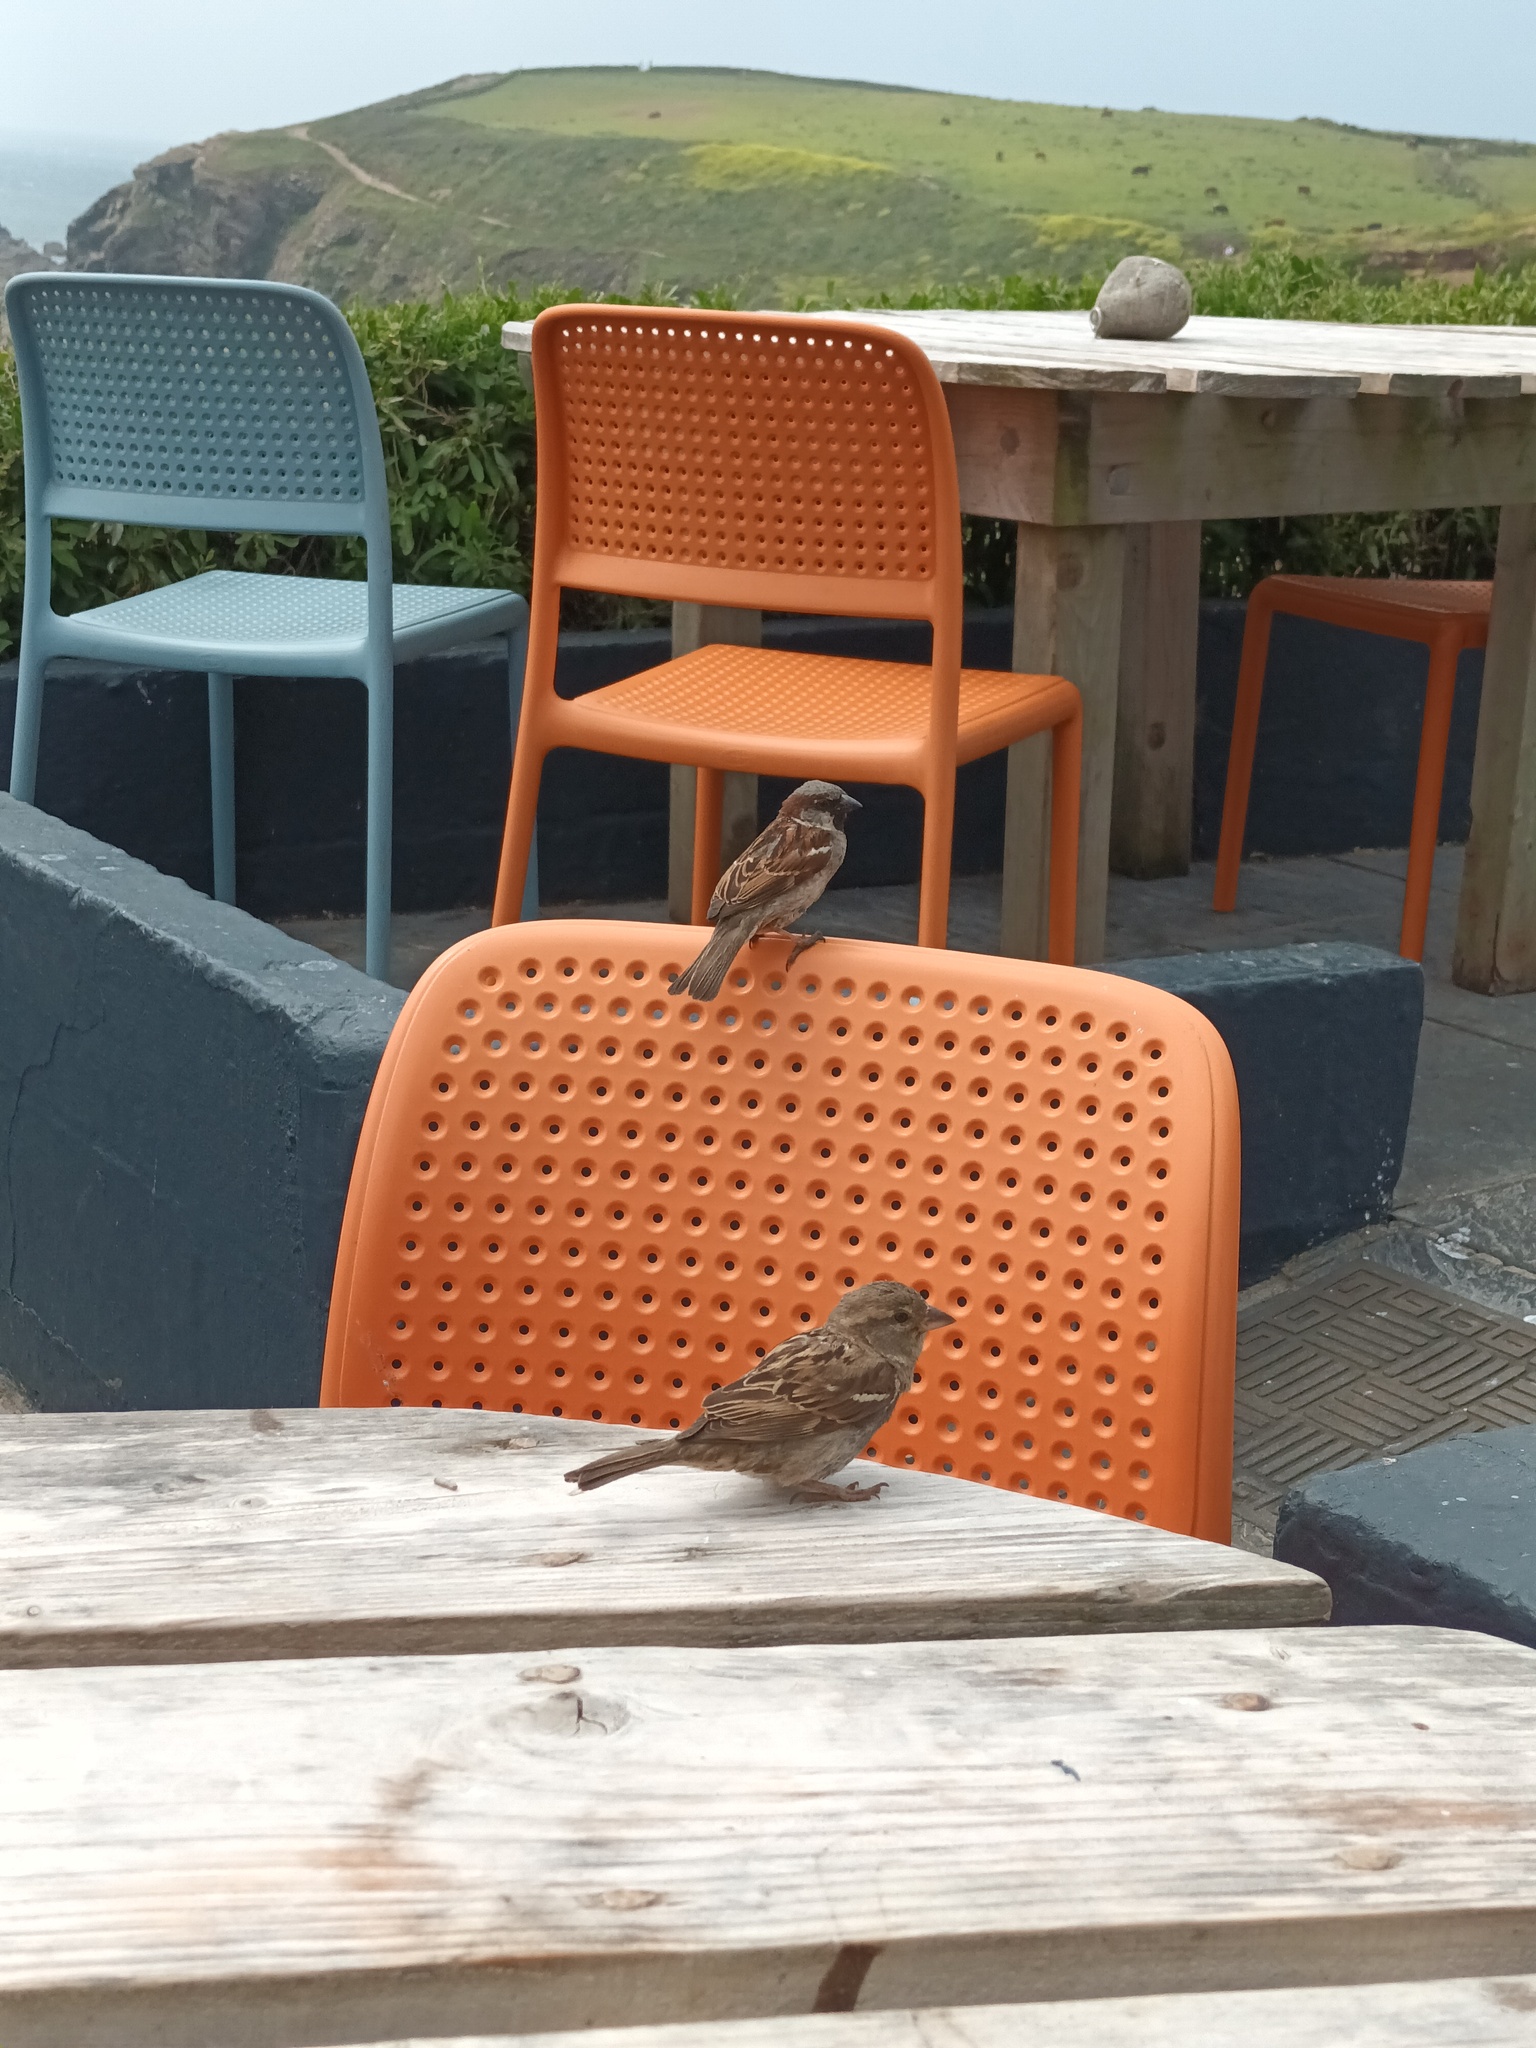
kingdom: Animalia
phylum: Chordata
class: Aves
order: Passeriformes
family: Passeridae
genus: Passer
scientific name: Passer domesticus
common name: House sparrow
